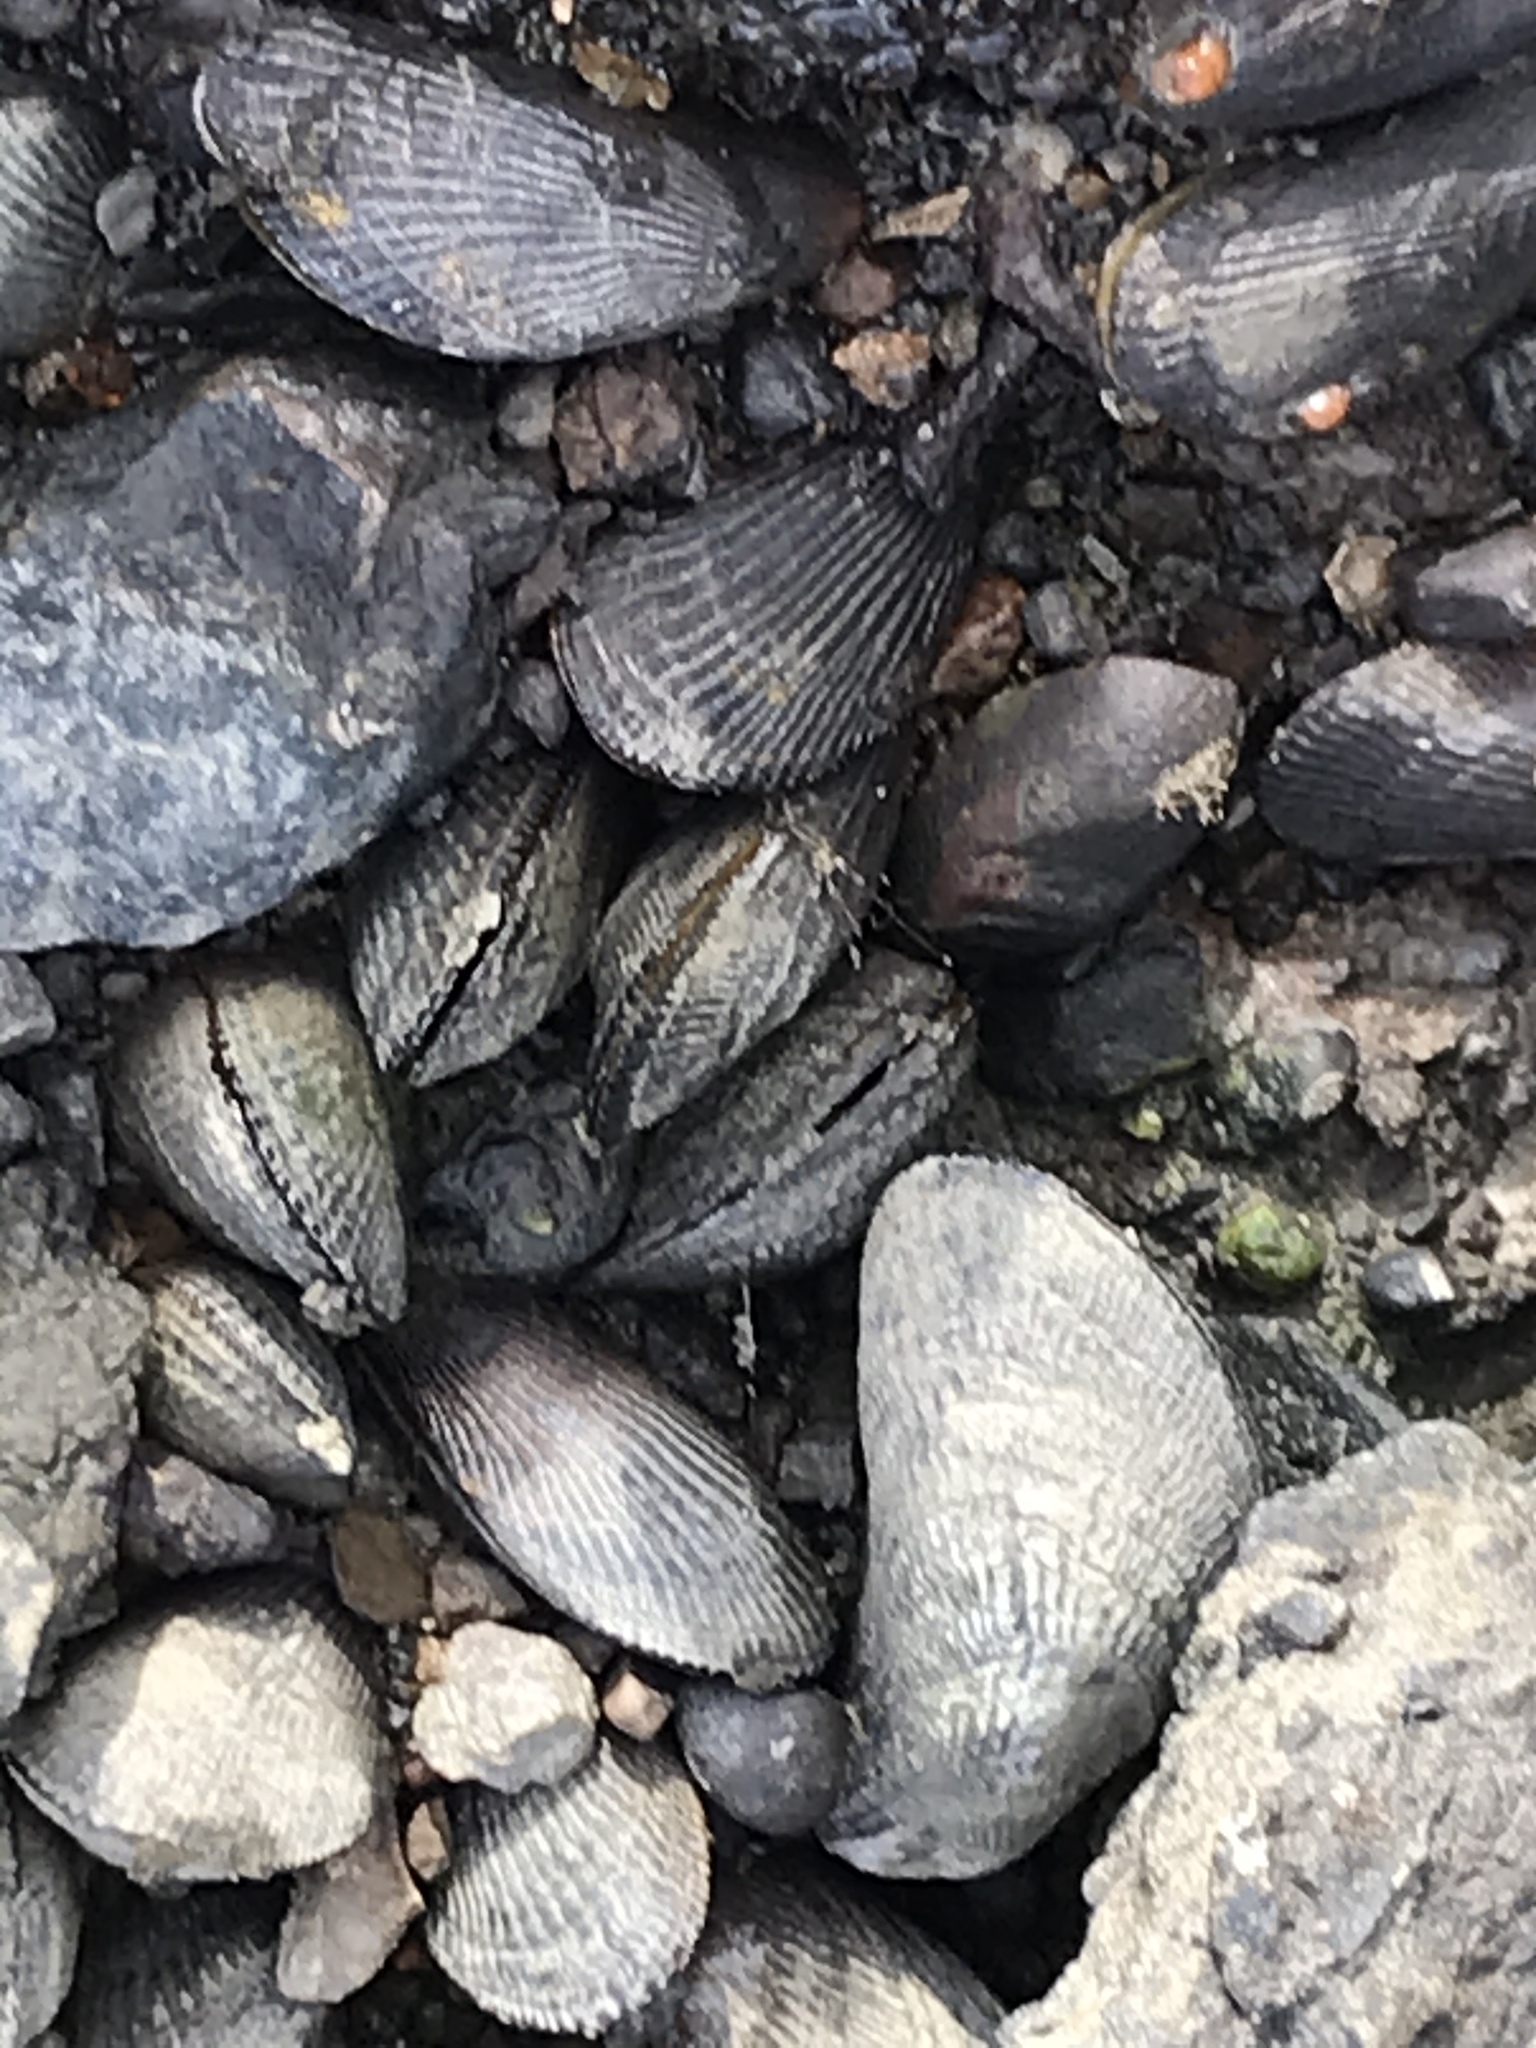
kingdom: Animalia
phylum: Mollusca
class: Bivalvia
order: Mytilida
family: Mytilidae
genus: Geukensia
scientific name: Geukensia demissa
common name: Ribbed mussel
